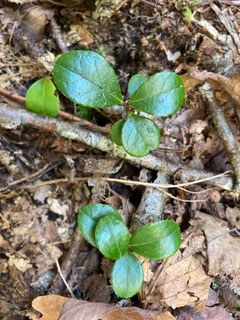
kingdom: Plantae
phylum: Tracheophyta
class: Magnoliopsida
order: Ericales
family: Ericaceae
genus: Gaultheria
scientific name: Gaultheria procumbens
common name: Checkerberry
